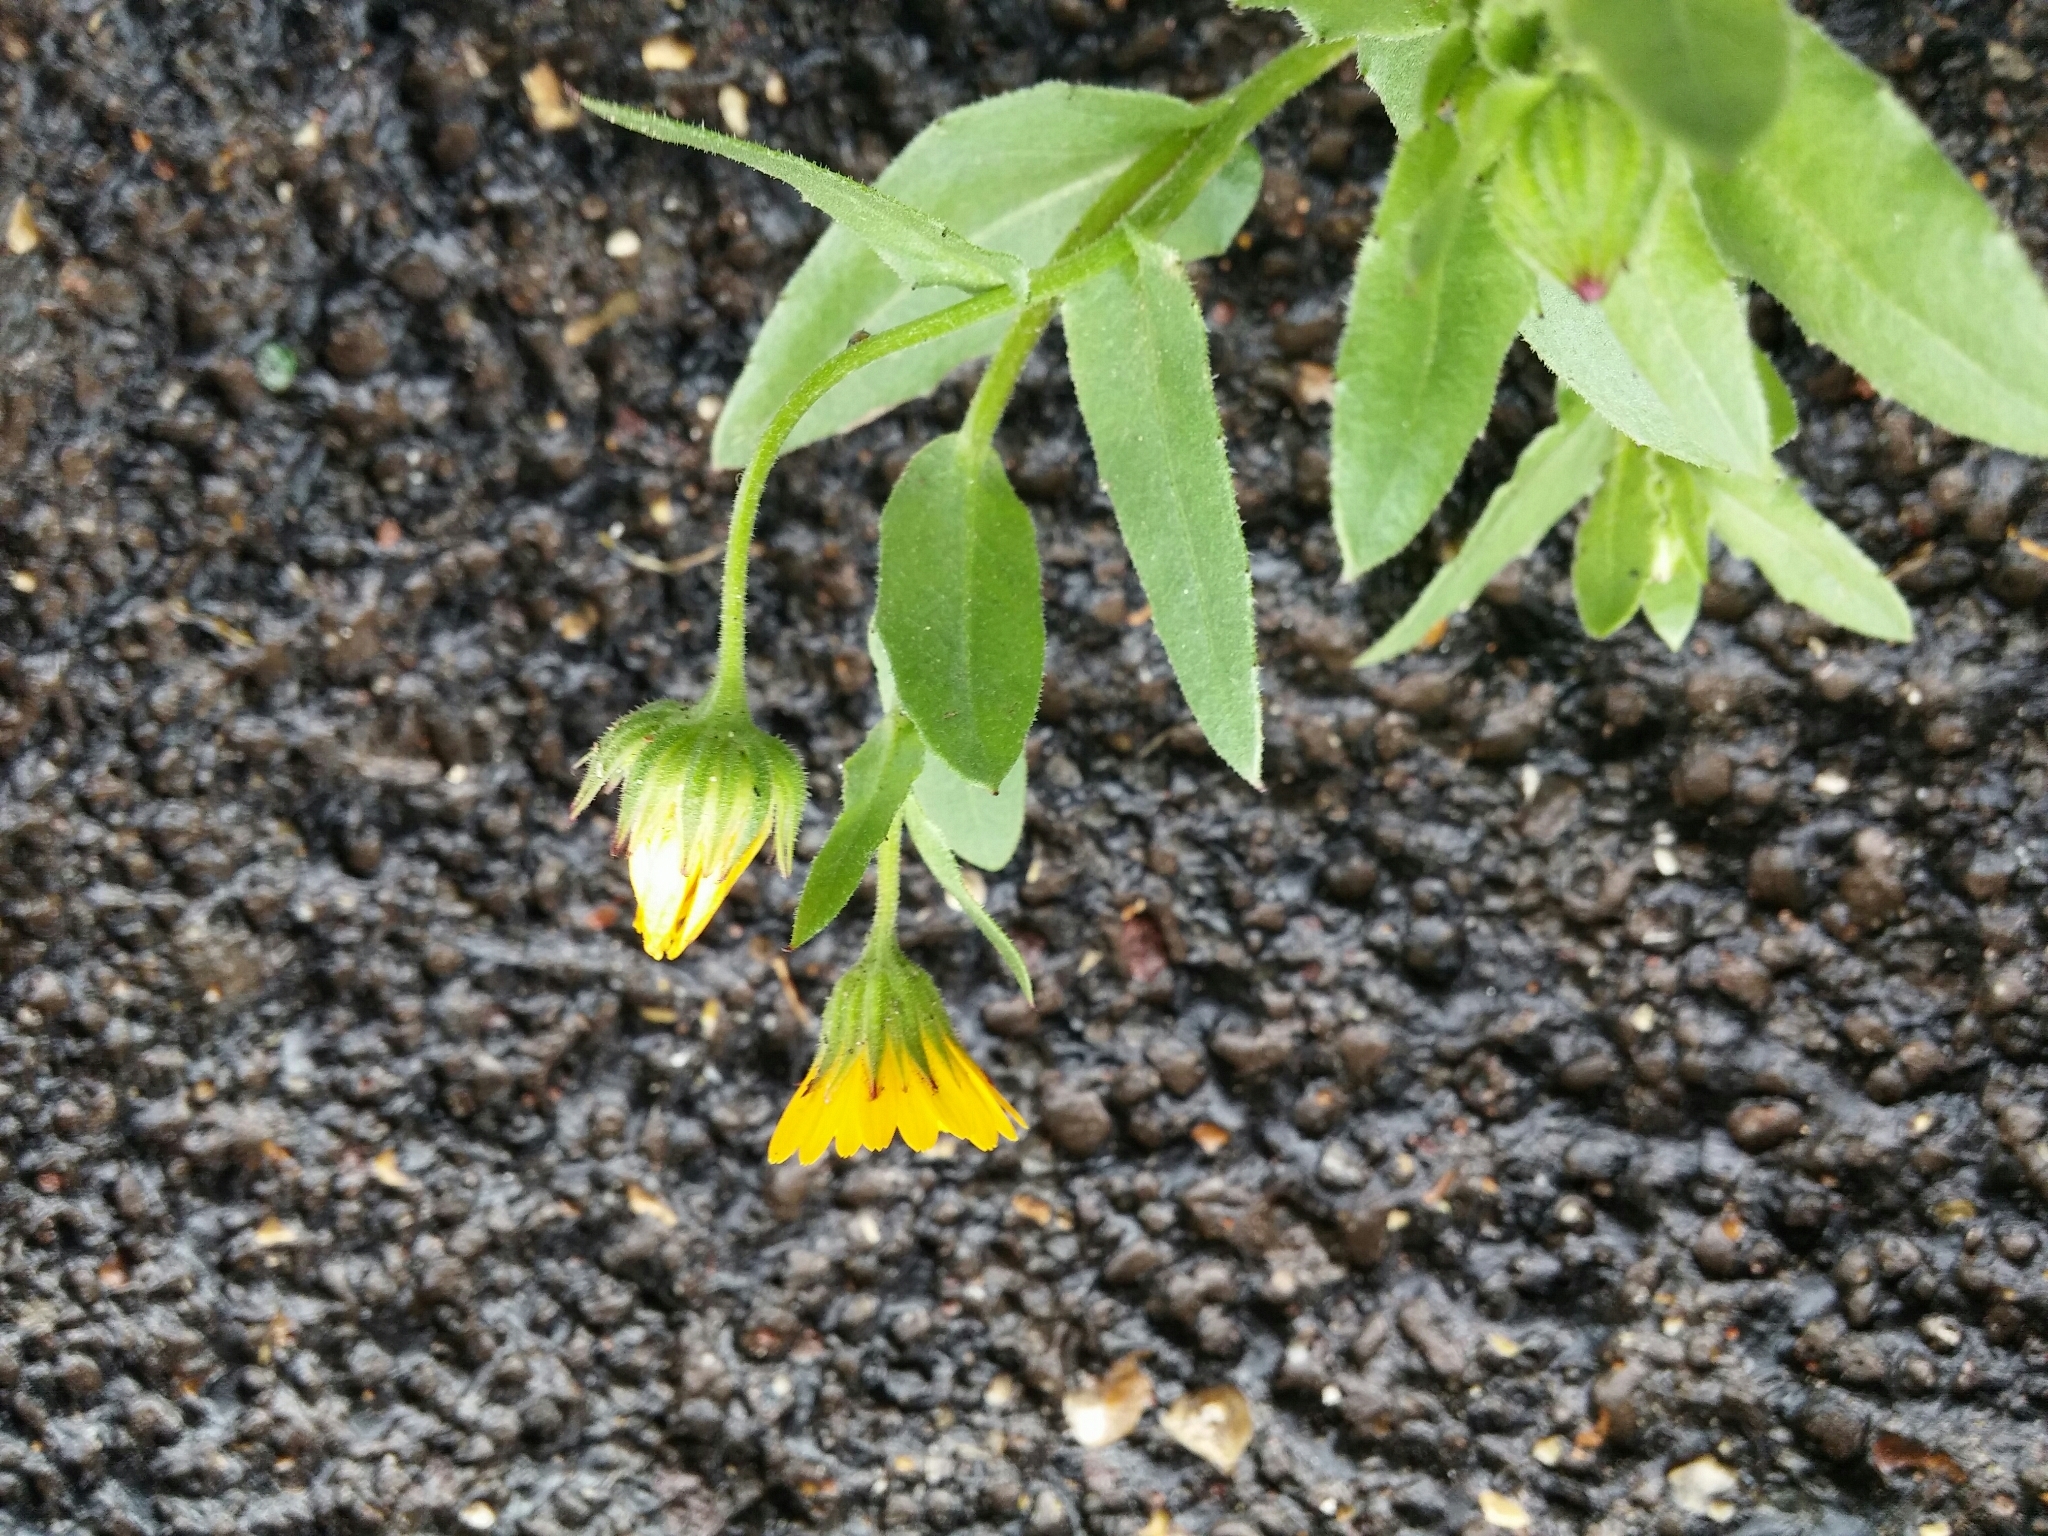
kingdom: Plantae
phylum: Tracheophyta
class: Magnoliopsida
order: Asterales
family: Asteraceae
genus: Calendula
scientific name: Calendula arvensis
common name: Field marigold
